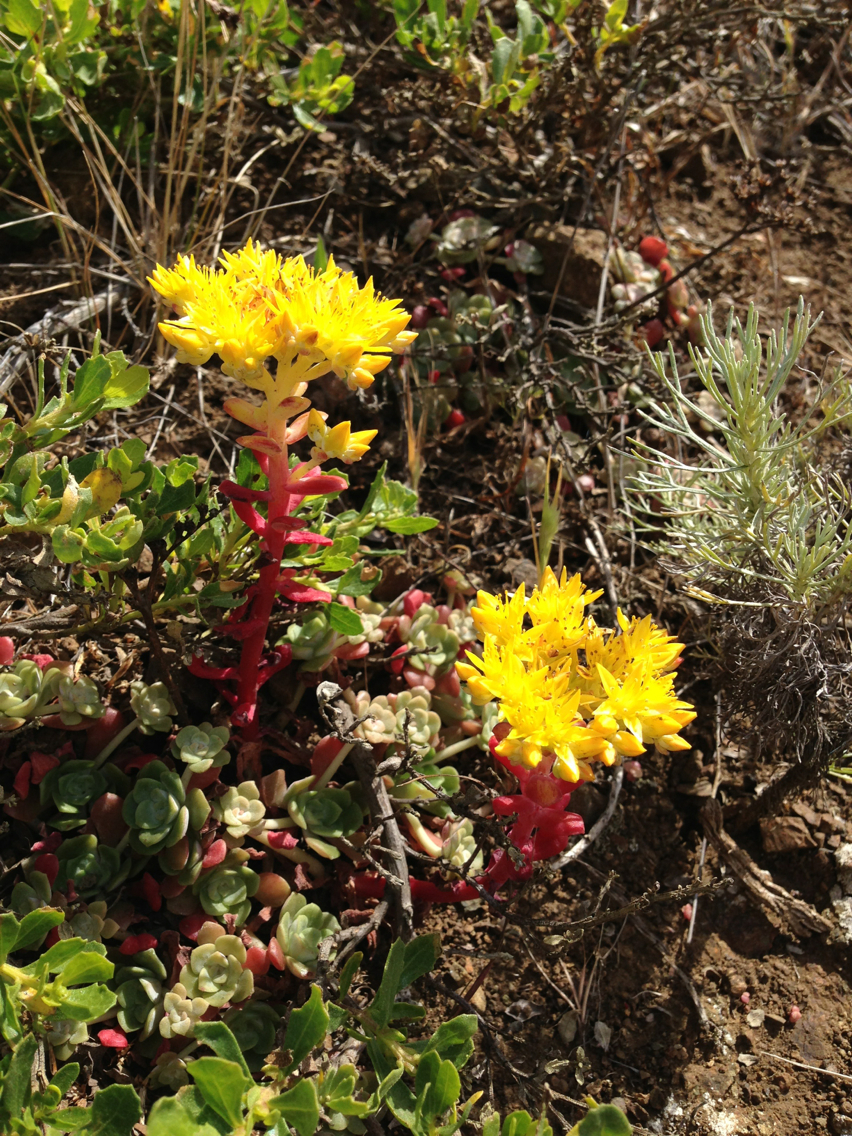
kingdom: Plantae
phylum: Tracheophyta
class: Magnoliopsida
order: Saxifragales
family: Crassulaceae
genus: Sedum
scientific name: Sedum spathulifolium
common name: Colorado stonecrop
